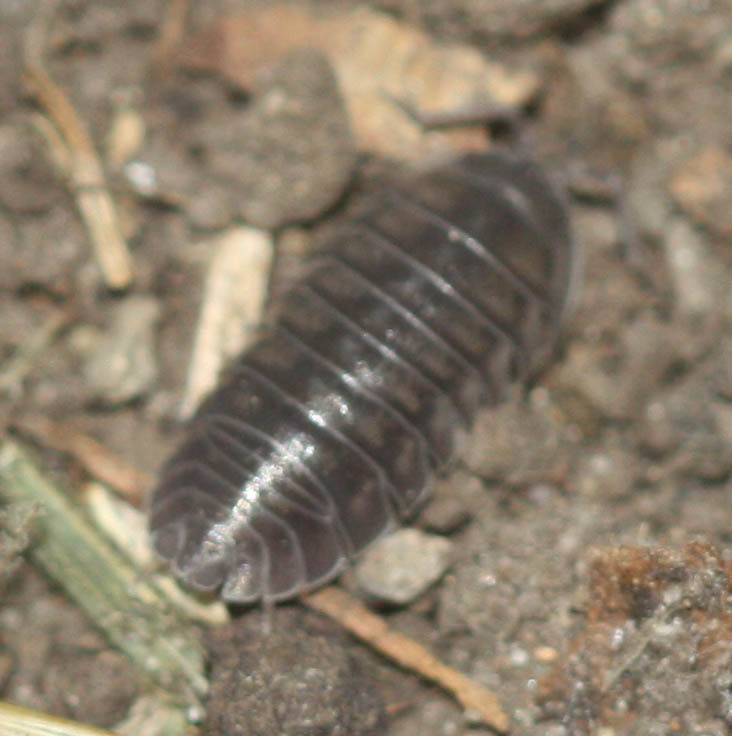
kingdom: Animalia
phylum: Arthropoda
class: Malacostraca
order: Isopoda
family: Armadillidiidae
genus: Armadillidium
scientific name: Armadillidium nasatum
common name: Isopod
